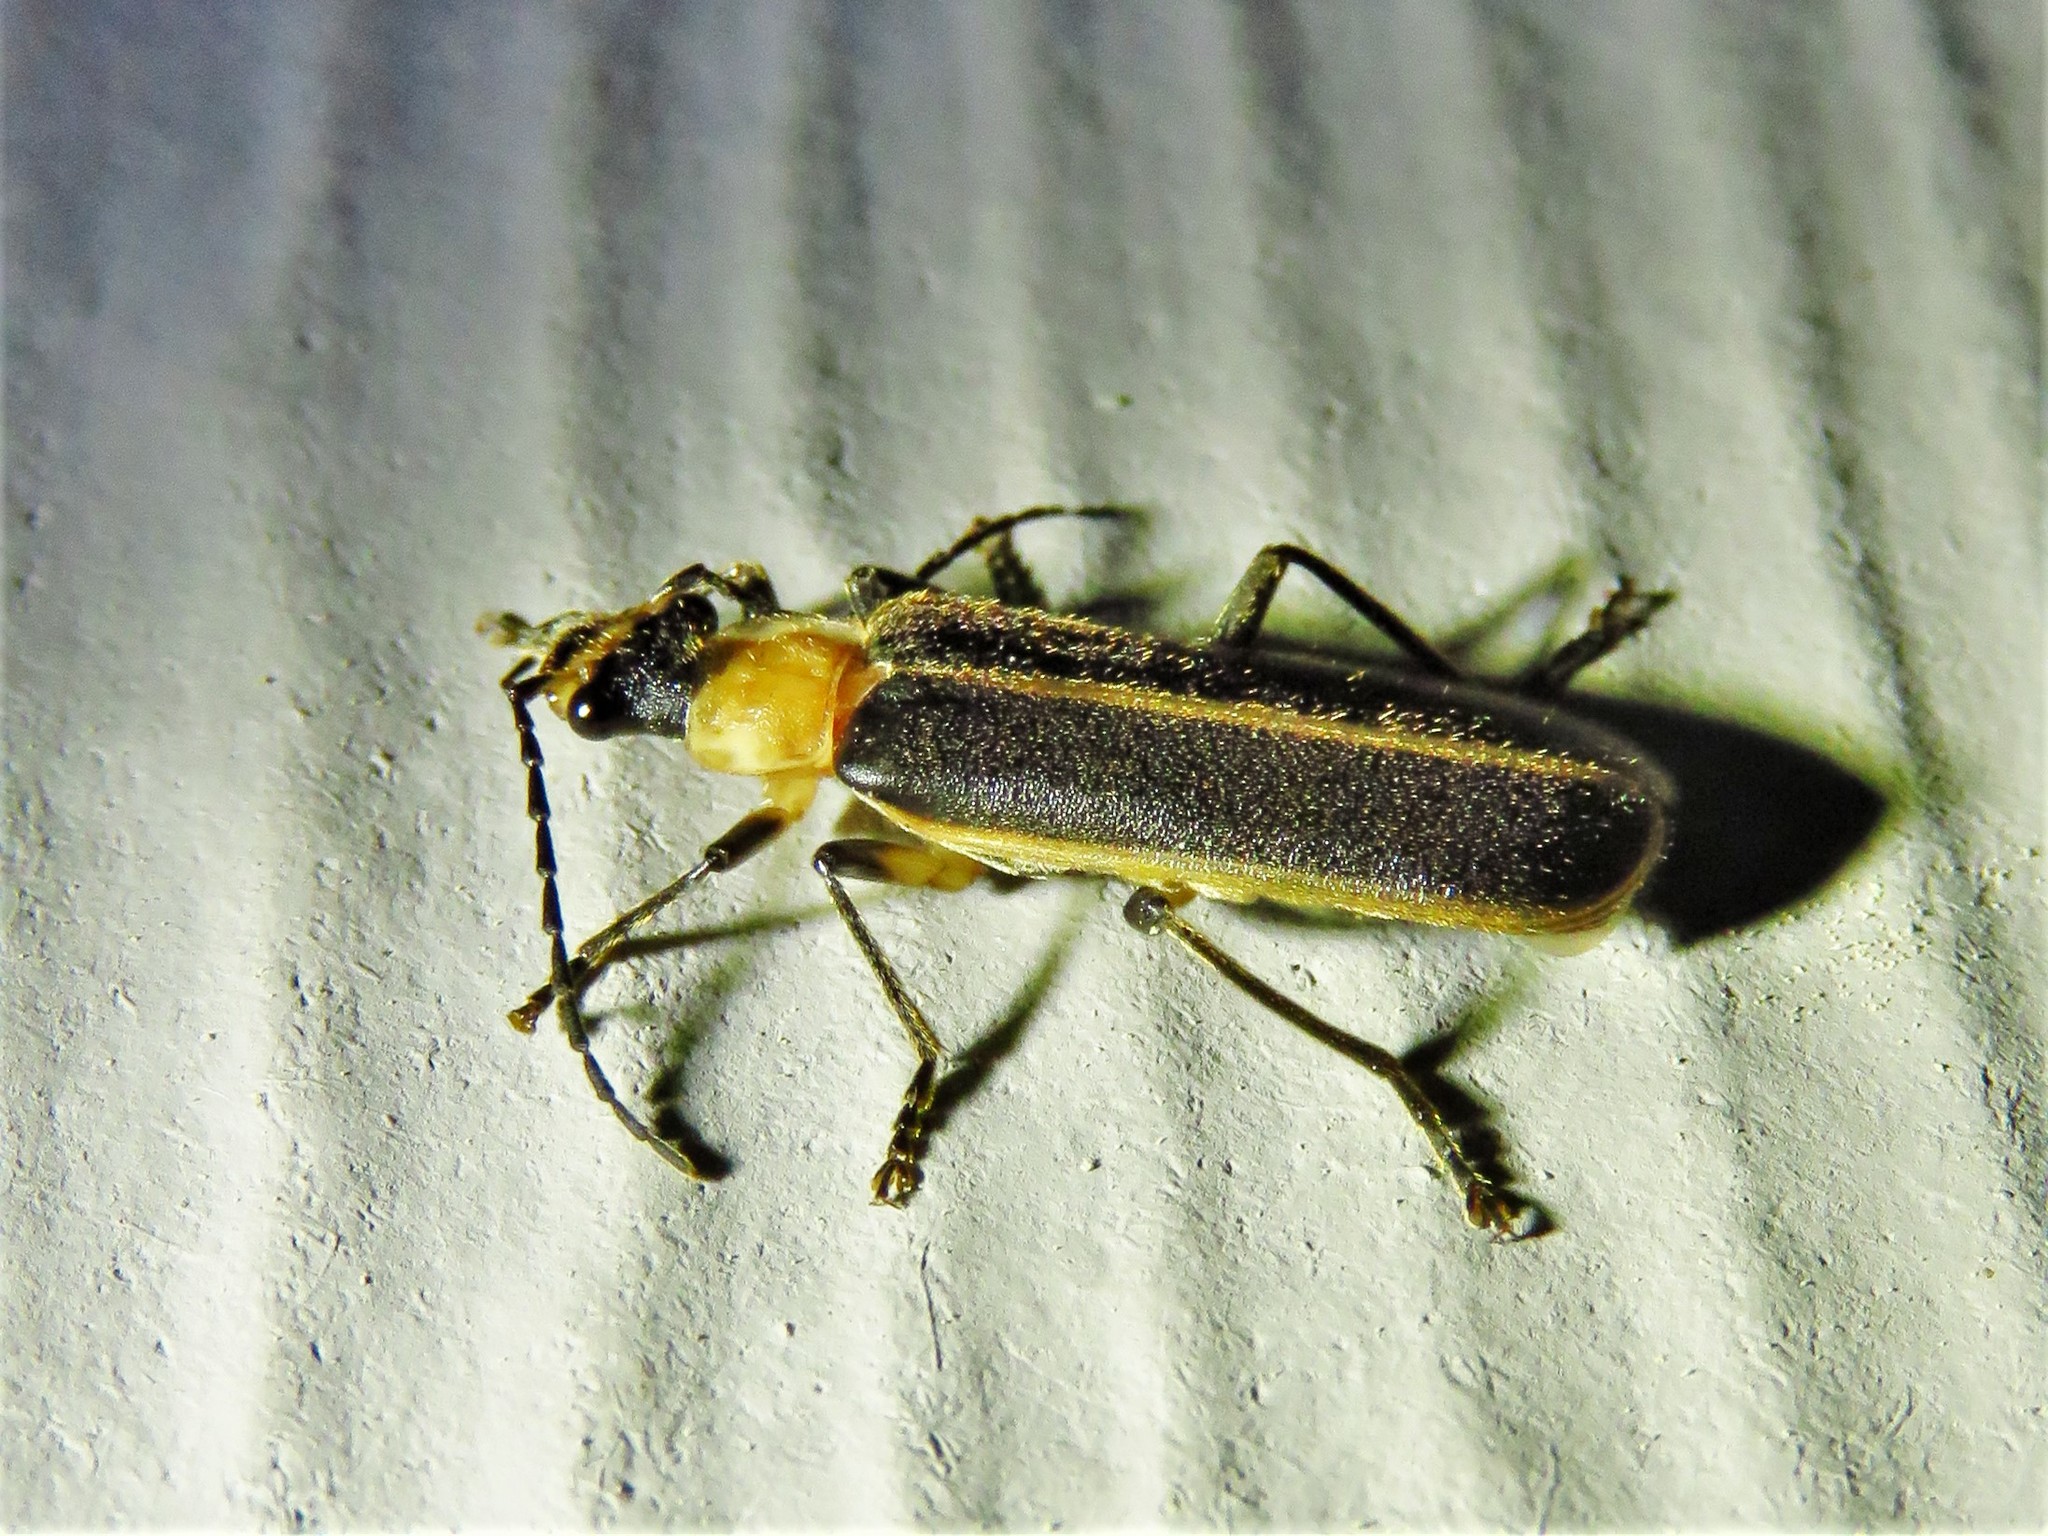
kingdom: Animalia
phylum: Arthropoda
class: Insecta
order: Coleoptera
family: Cantharidae
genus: Podabrus
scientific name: Podabrus flavicollis
